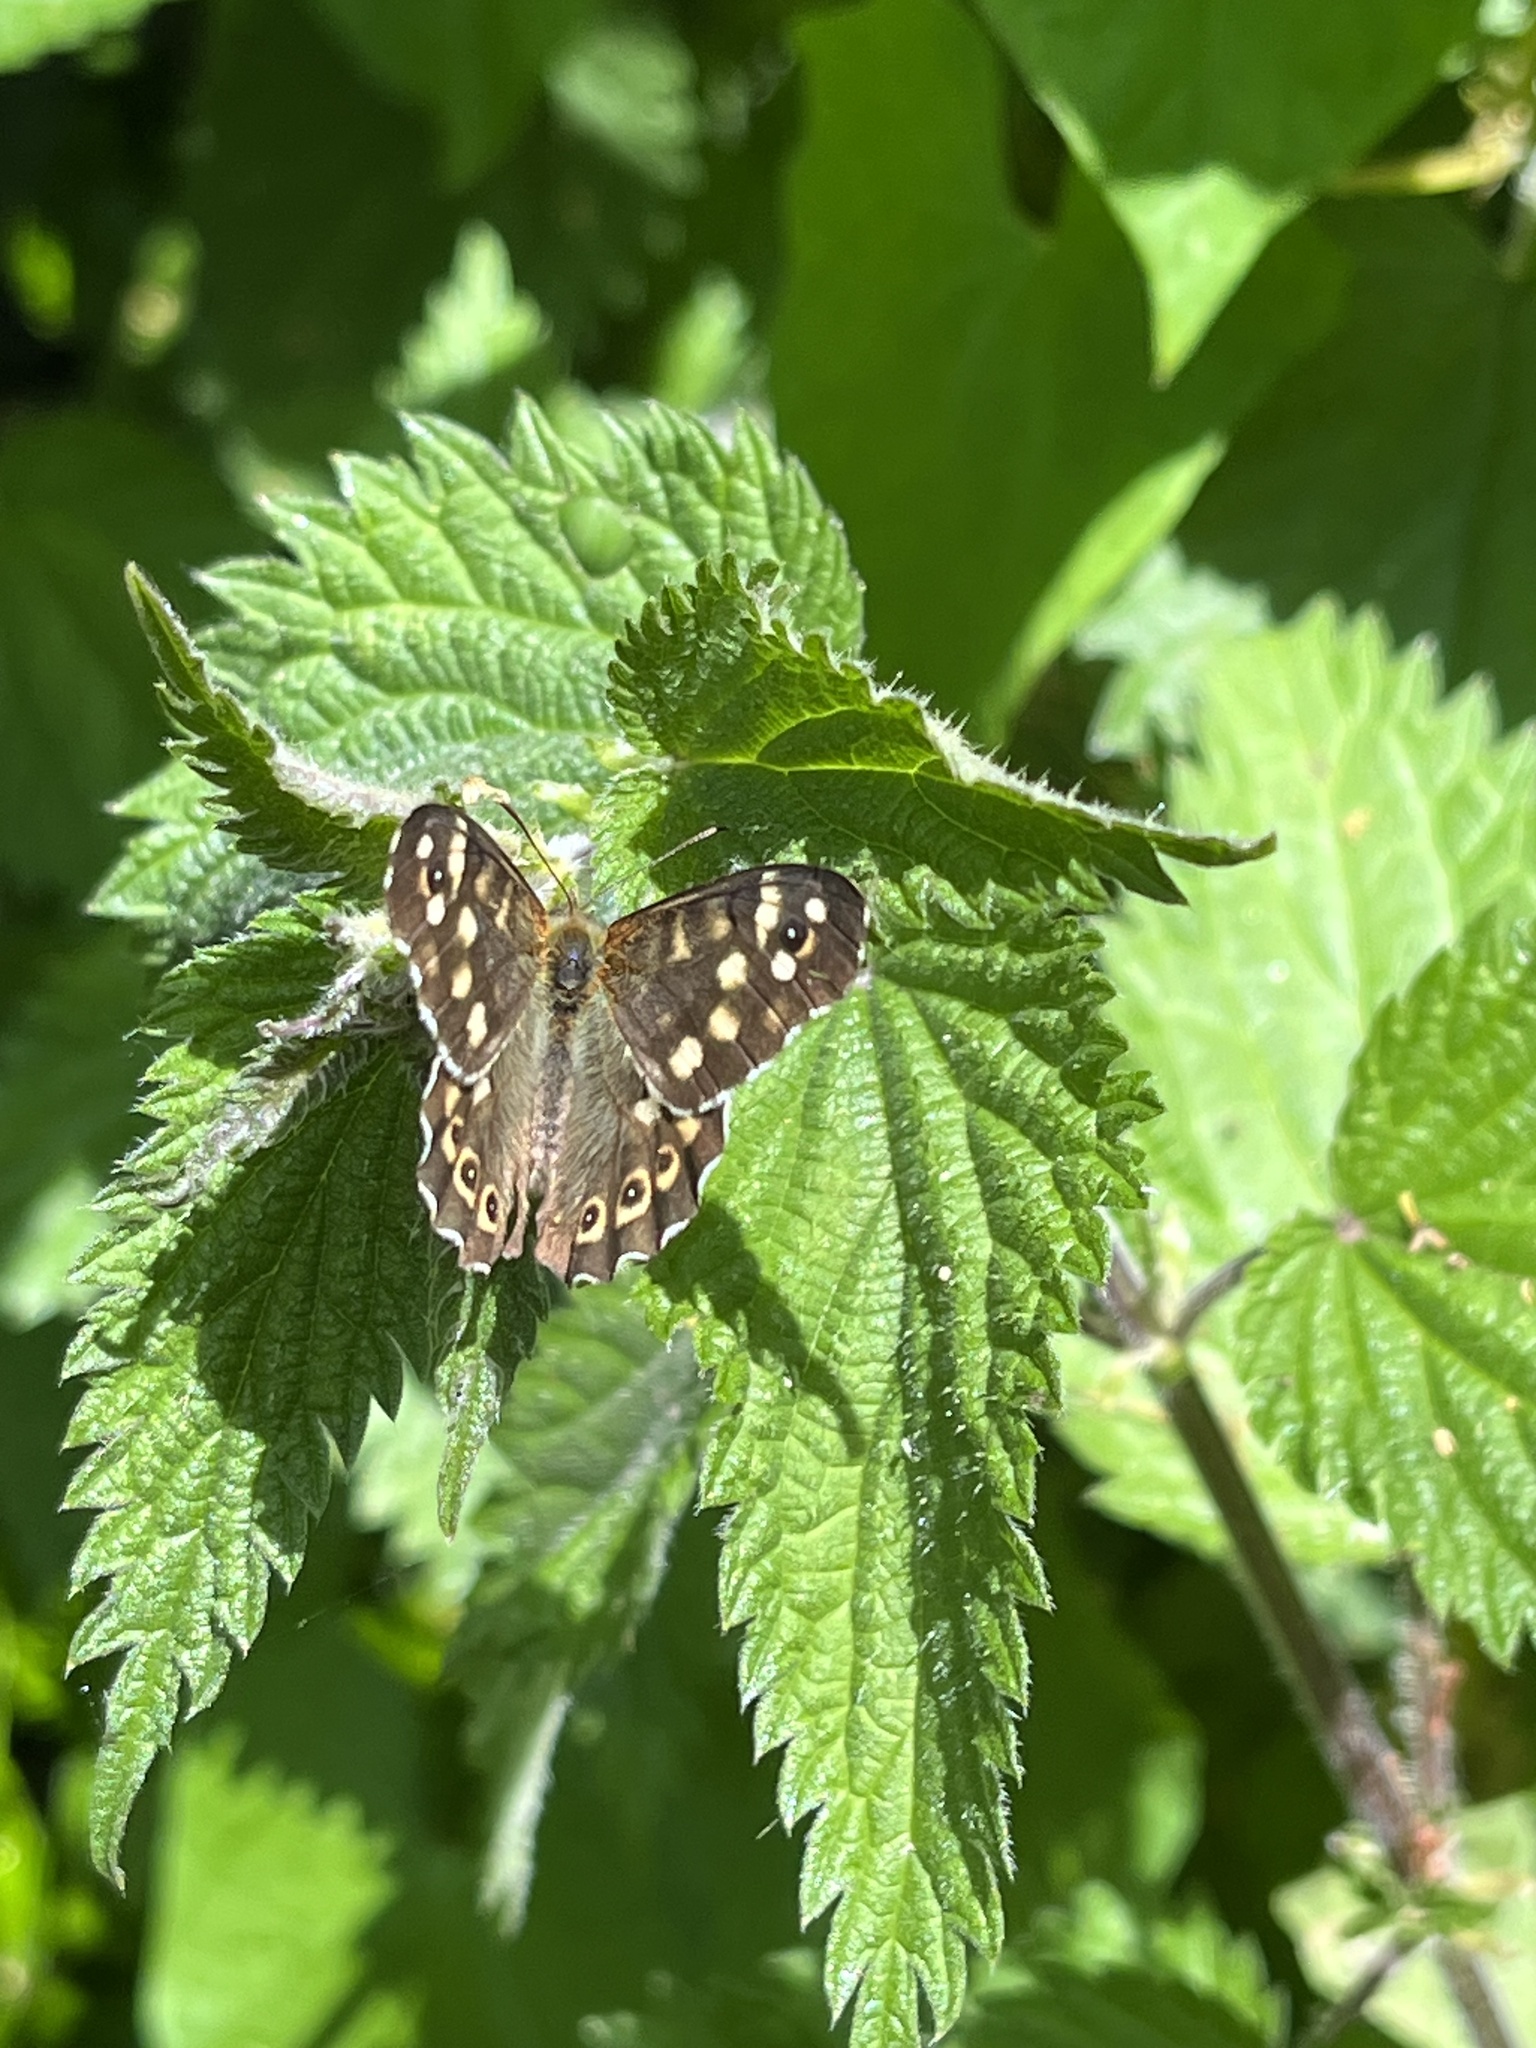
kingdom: Animalia
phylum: Arthropoda
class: Insecta
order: Lepidoptera
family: Nymphalidae
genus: Pararge
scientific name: Pararge aegeria
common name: Speckled wood
